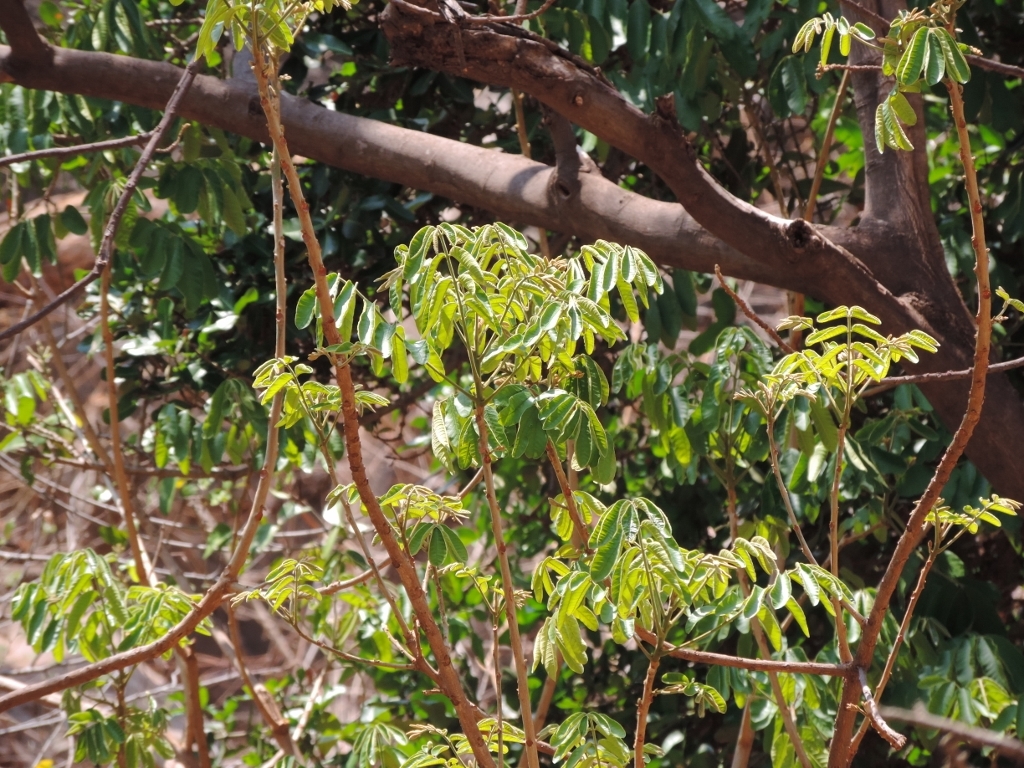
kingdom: Plantae
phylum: Tracheophyta
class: Magnoliopsida
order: Sapindales
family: Meliaceae
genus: Trichilia
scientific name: Trichilia emetica
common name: Christmas-bells
